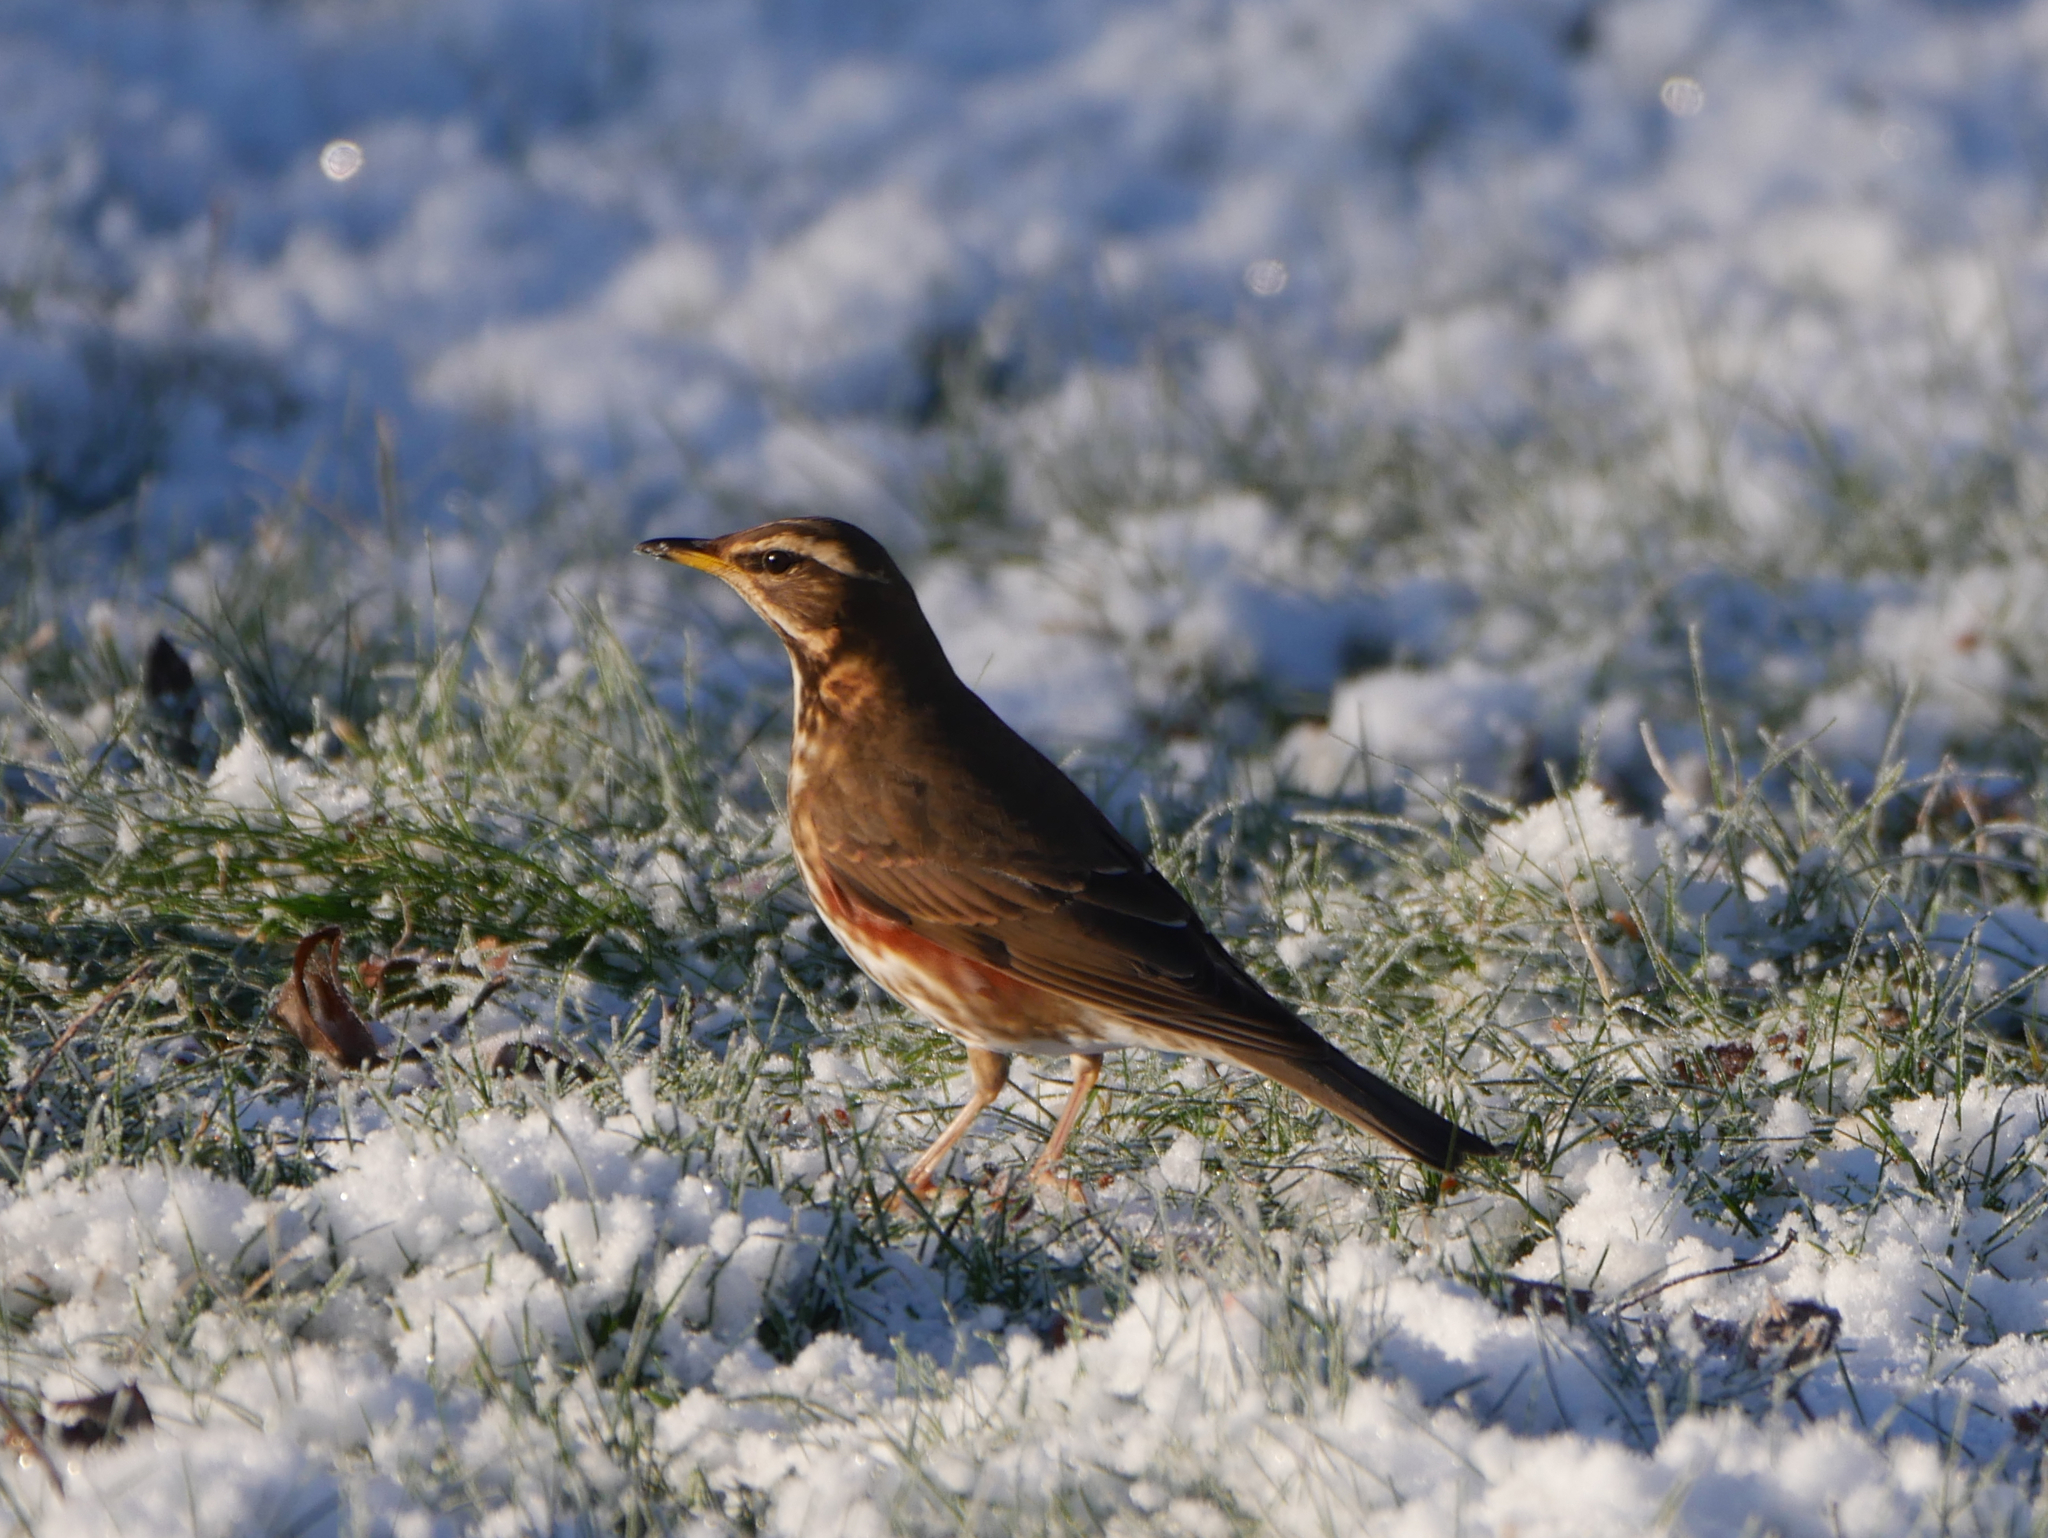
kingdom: Animalia
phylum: Chordata
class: Aves
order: Passeriformes
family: Turdidae
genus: Turdus
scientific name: Turdus iliacus
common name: Redwing
